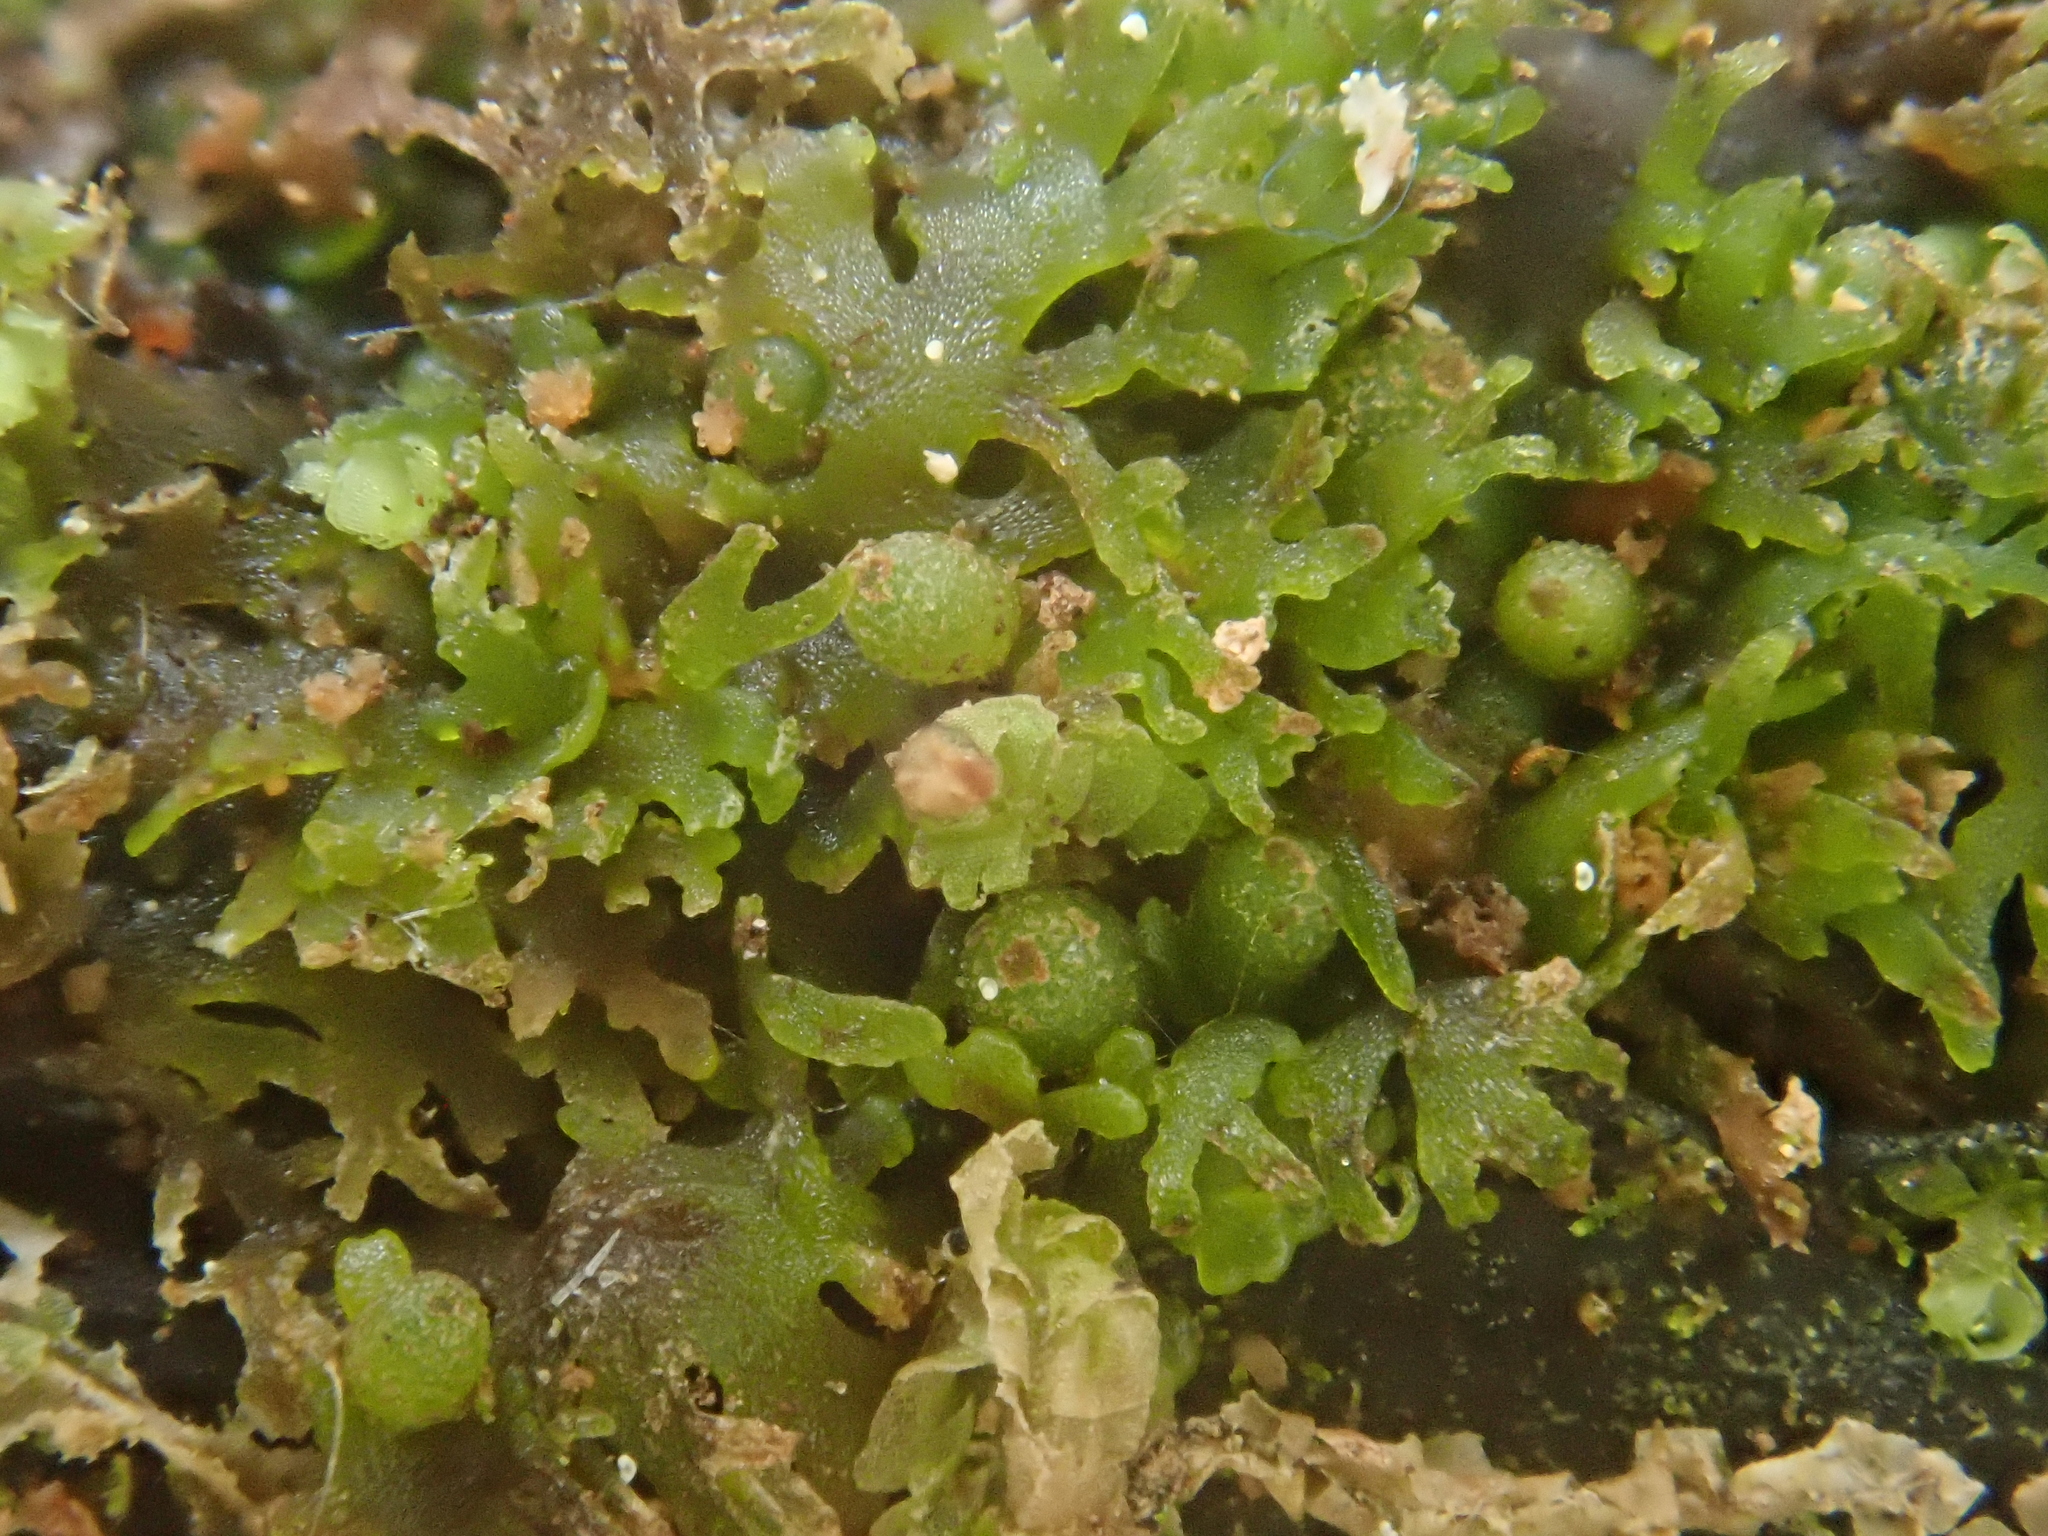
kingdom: Plantae
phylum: Marchantiophyta
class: Jungermanniopsida
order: Metzgeriales
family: Aneuraceae
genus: Riccardia
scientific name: Riccardia latifrons
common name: Bog germanderwort
